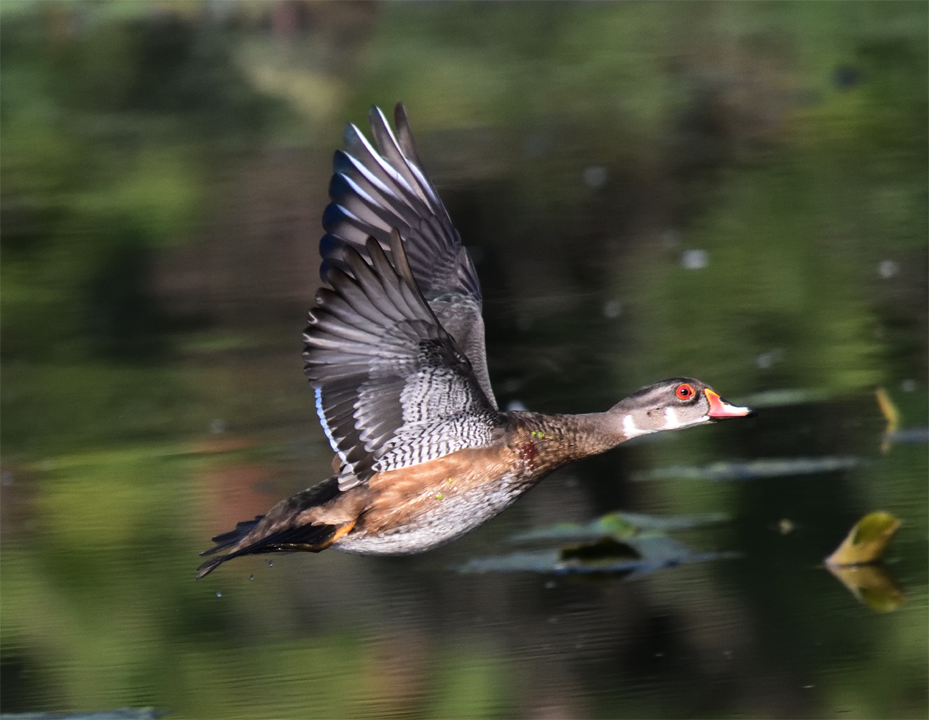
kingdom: Animalia
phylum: Chordata
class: Aves
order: Anseriformes
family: Anatidae
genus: Aix
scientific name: Aix sponsa
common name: Wood duck
